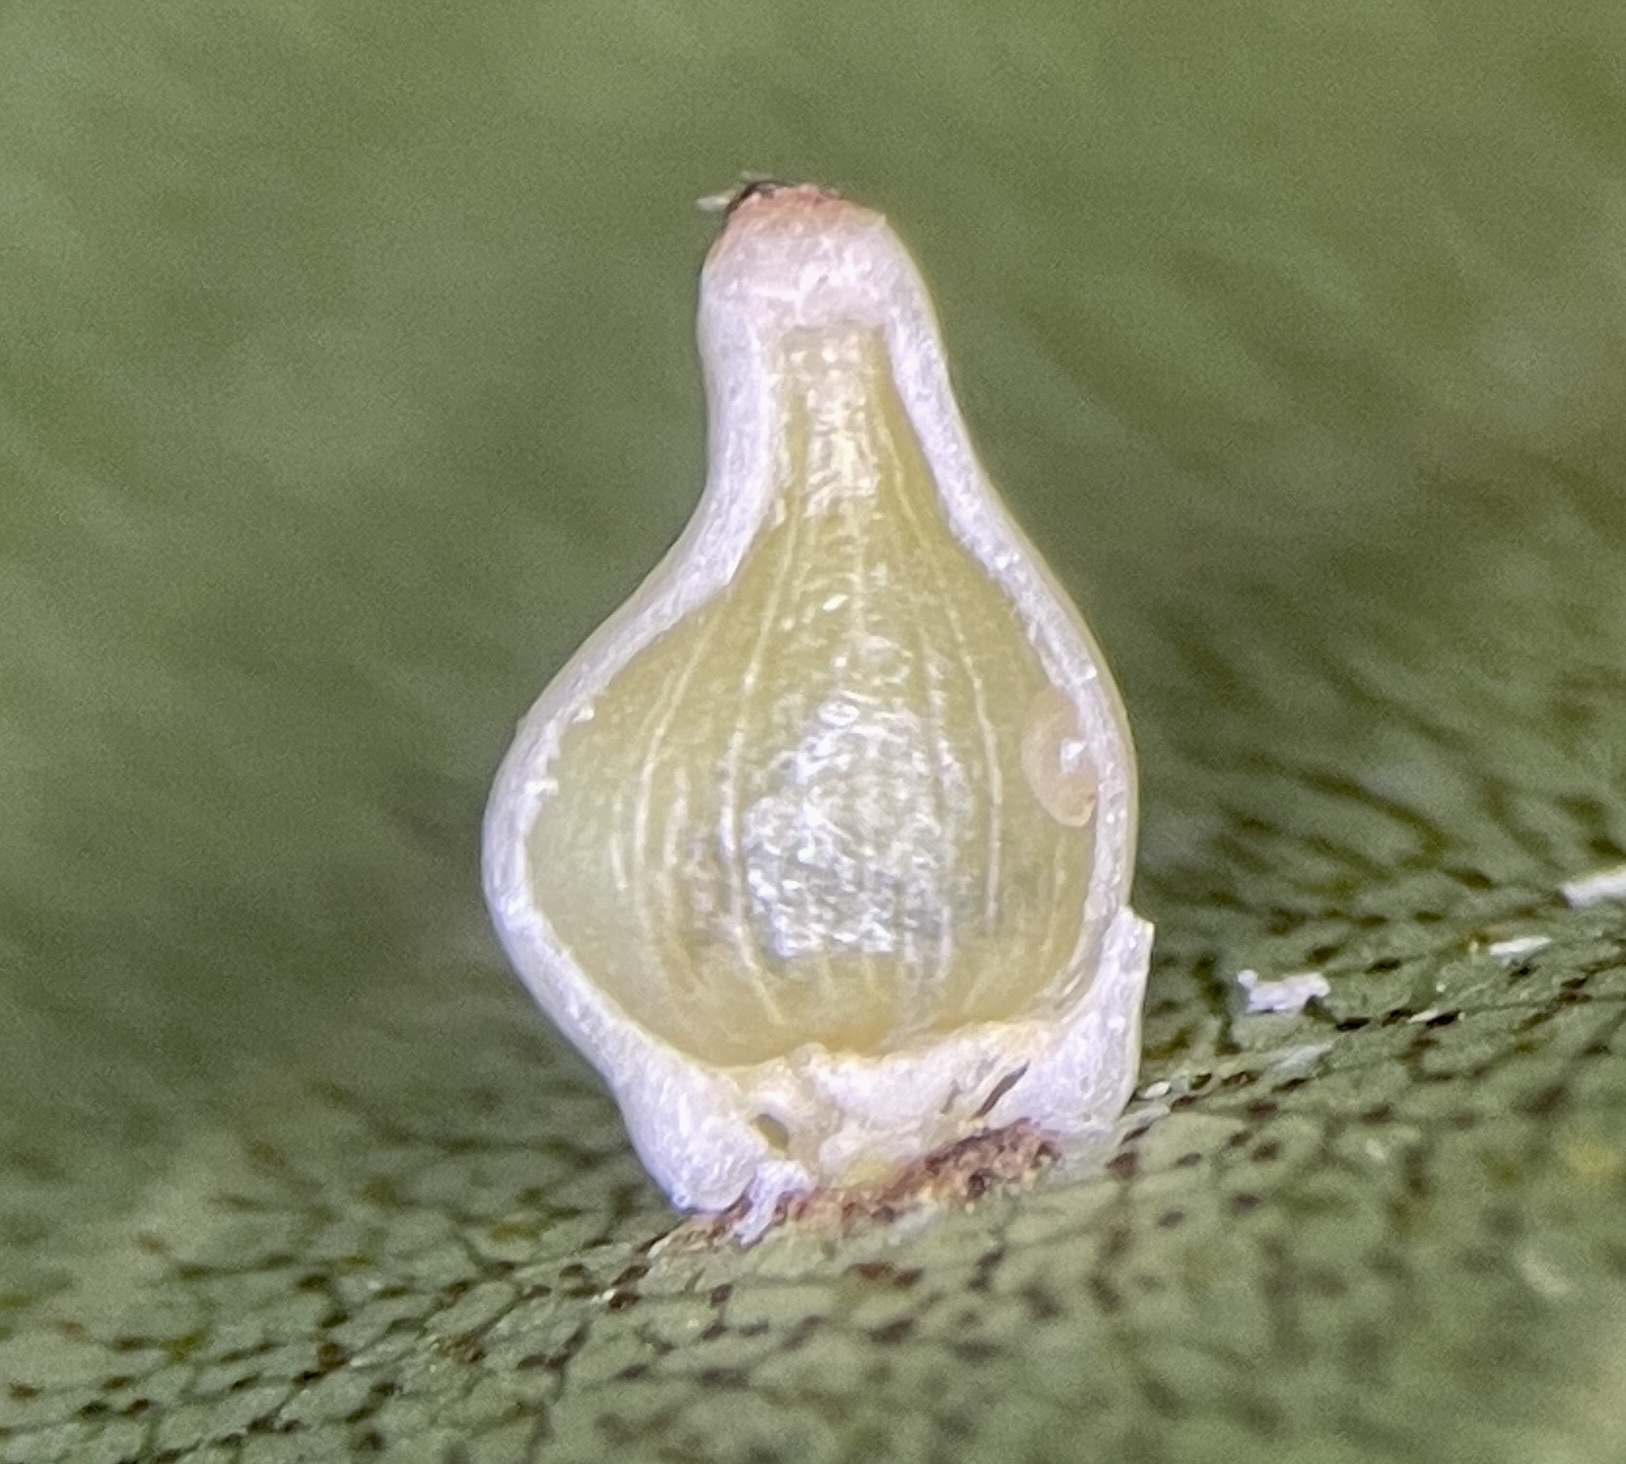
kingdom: Animalia
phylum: Arthropoda
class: Insecta
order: Diptera
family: Cecidomyiidae
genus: Caryomyia
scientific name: Caryomyia shmoo
